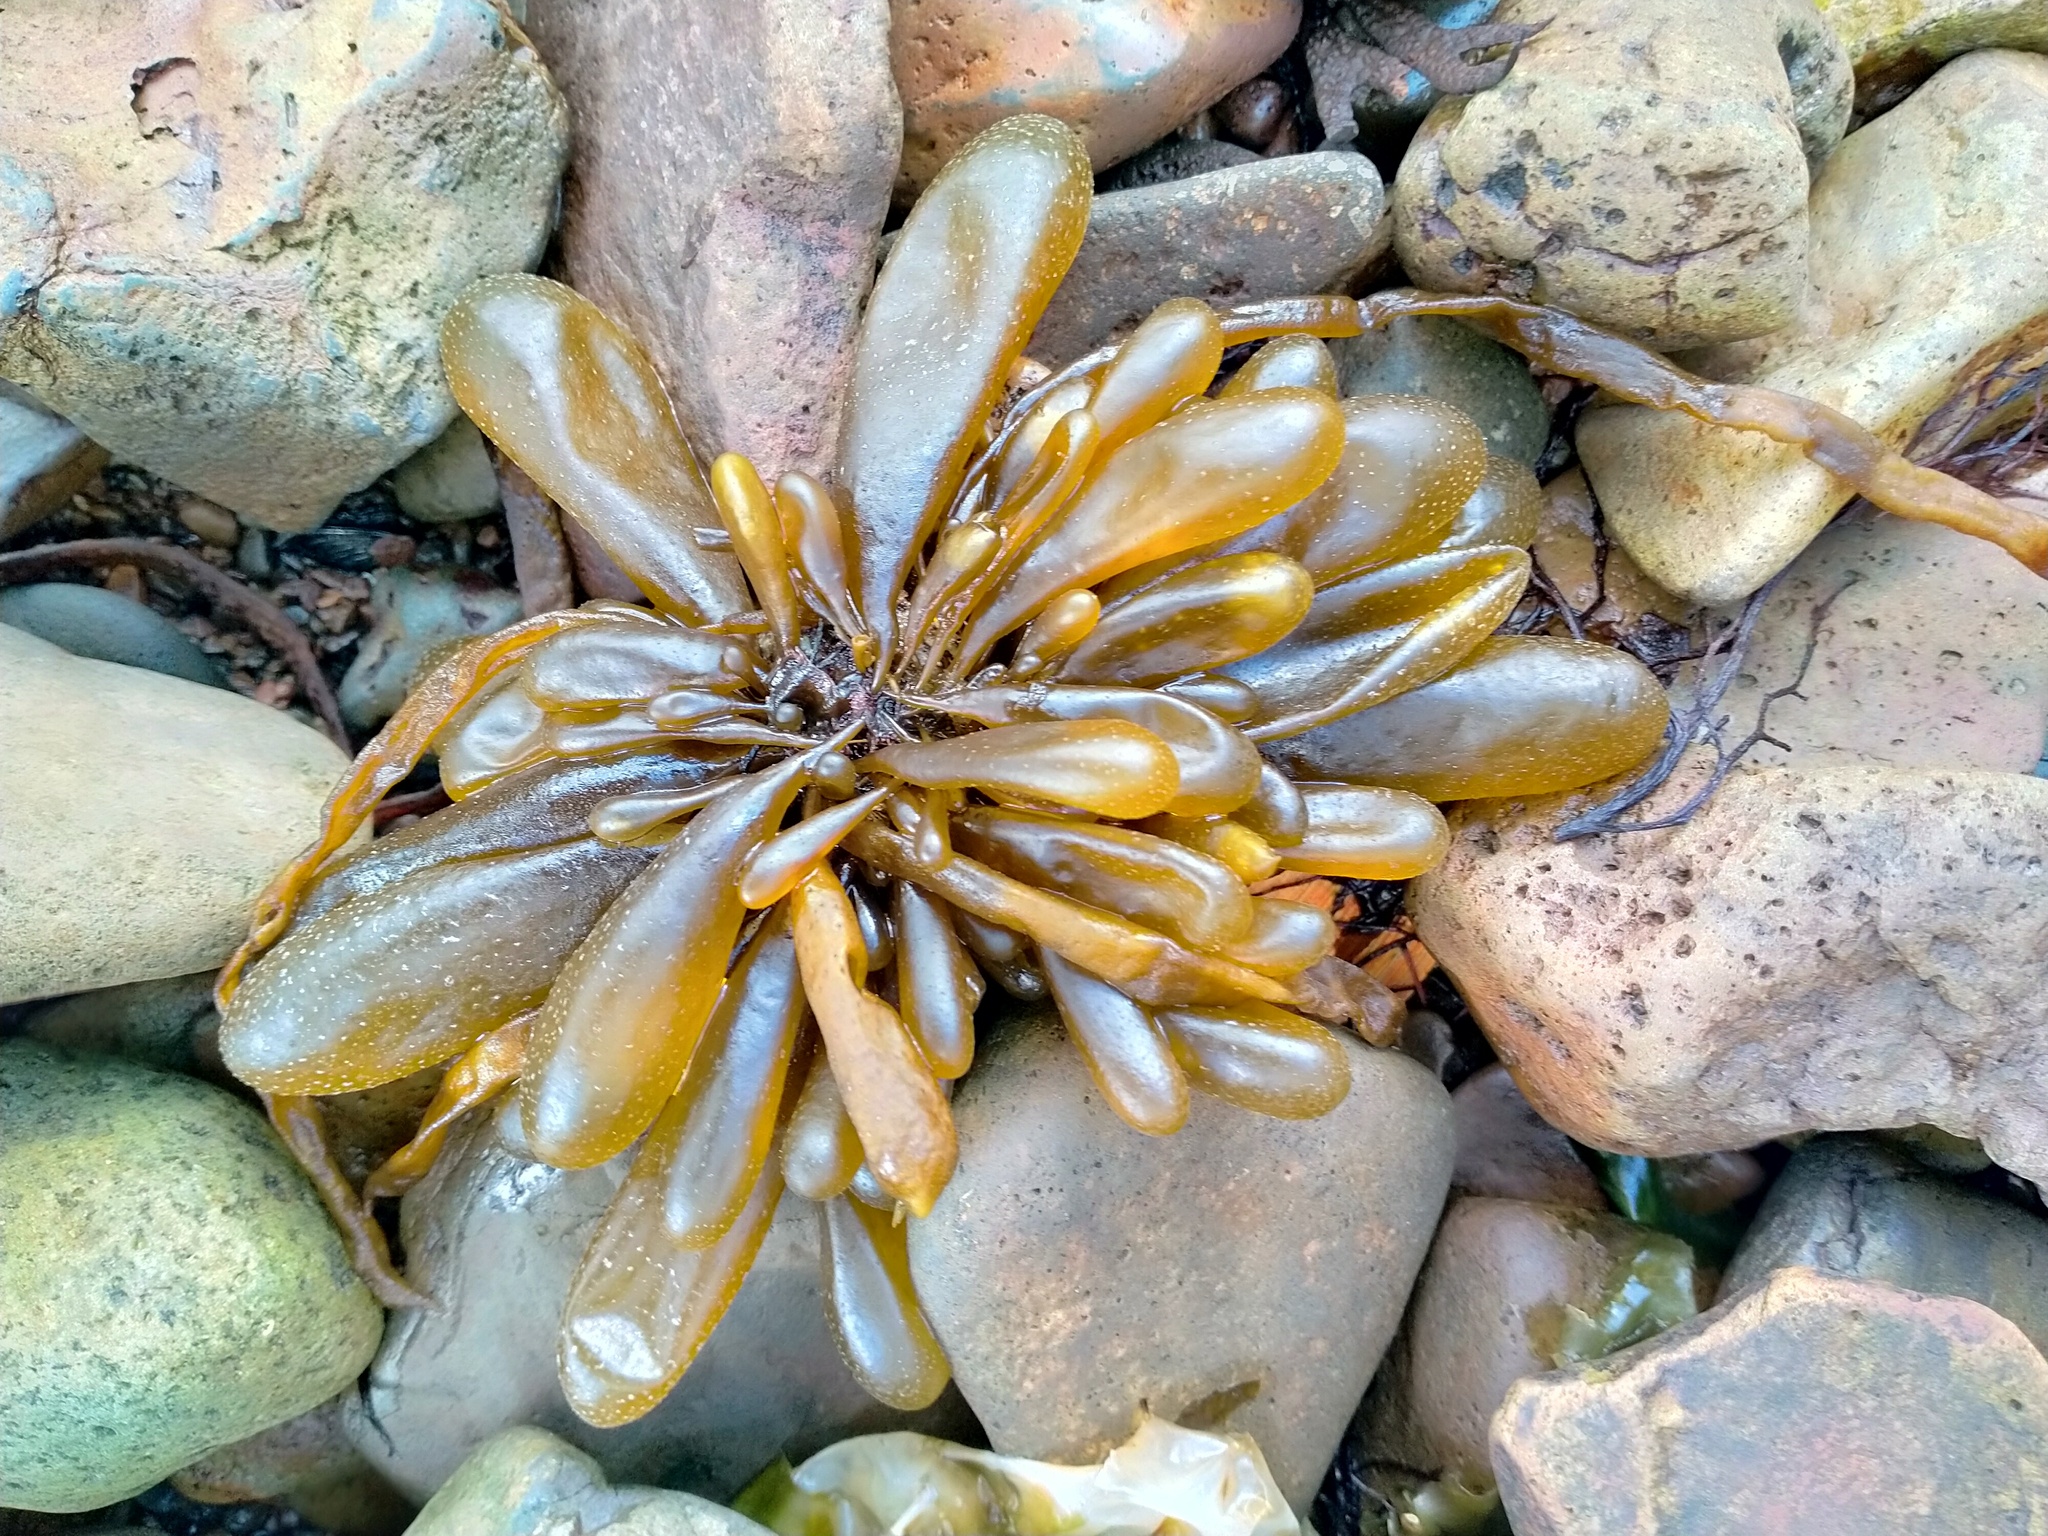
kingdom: Chromista
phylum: Ochrophyta
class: Phaeophyceae
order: Ectocarpales
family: Adenocystaceae
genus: Adenocystis
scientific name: Adenocystis utricularis
